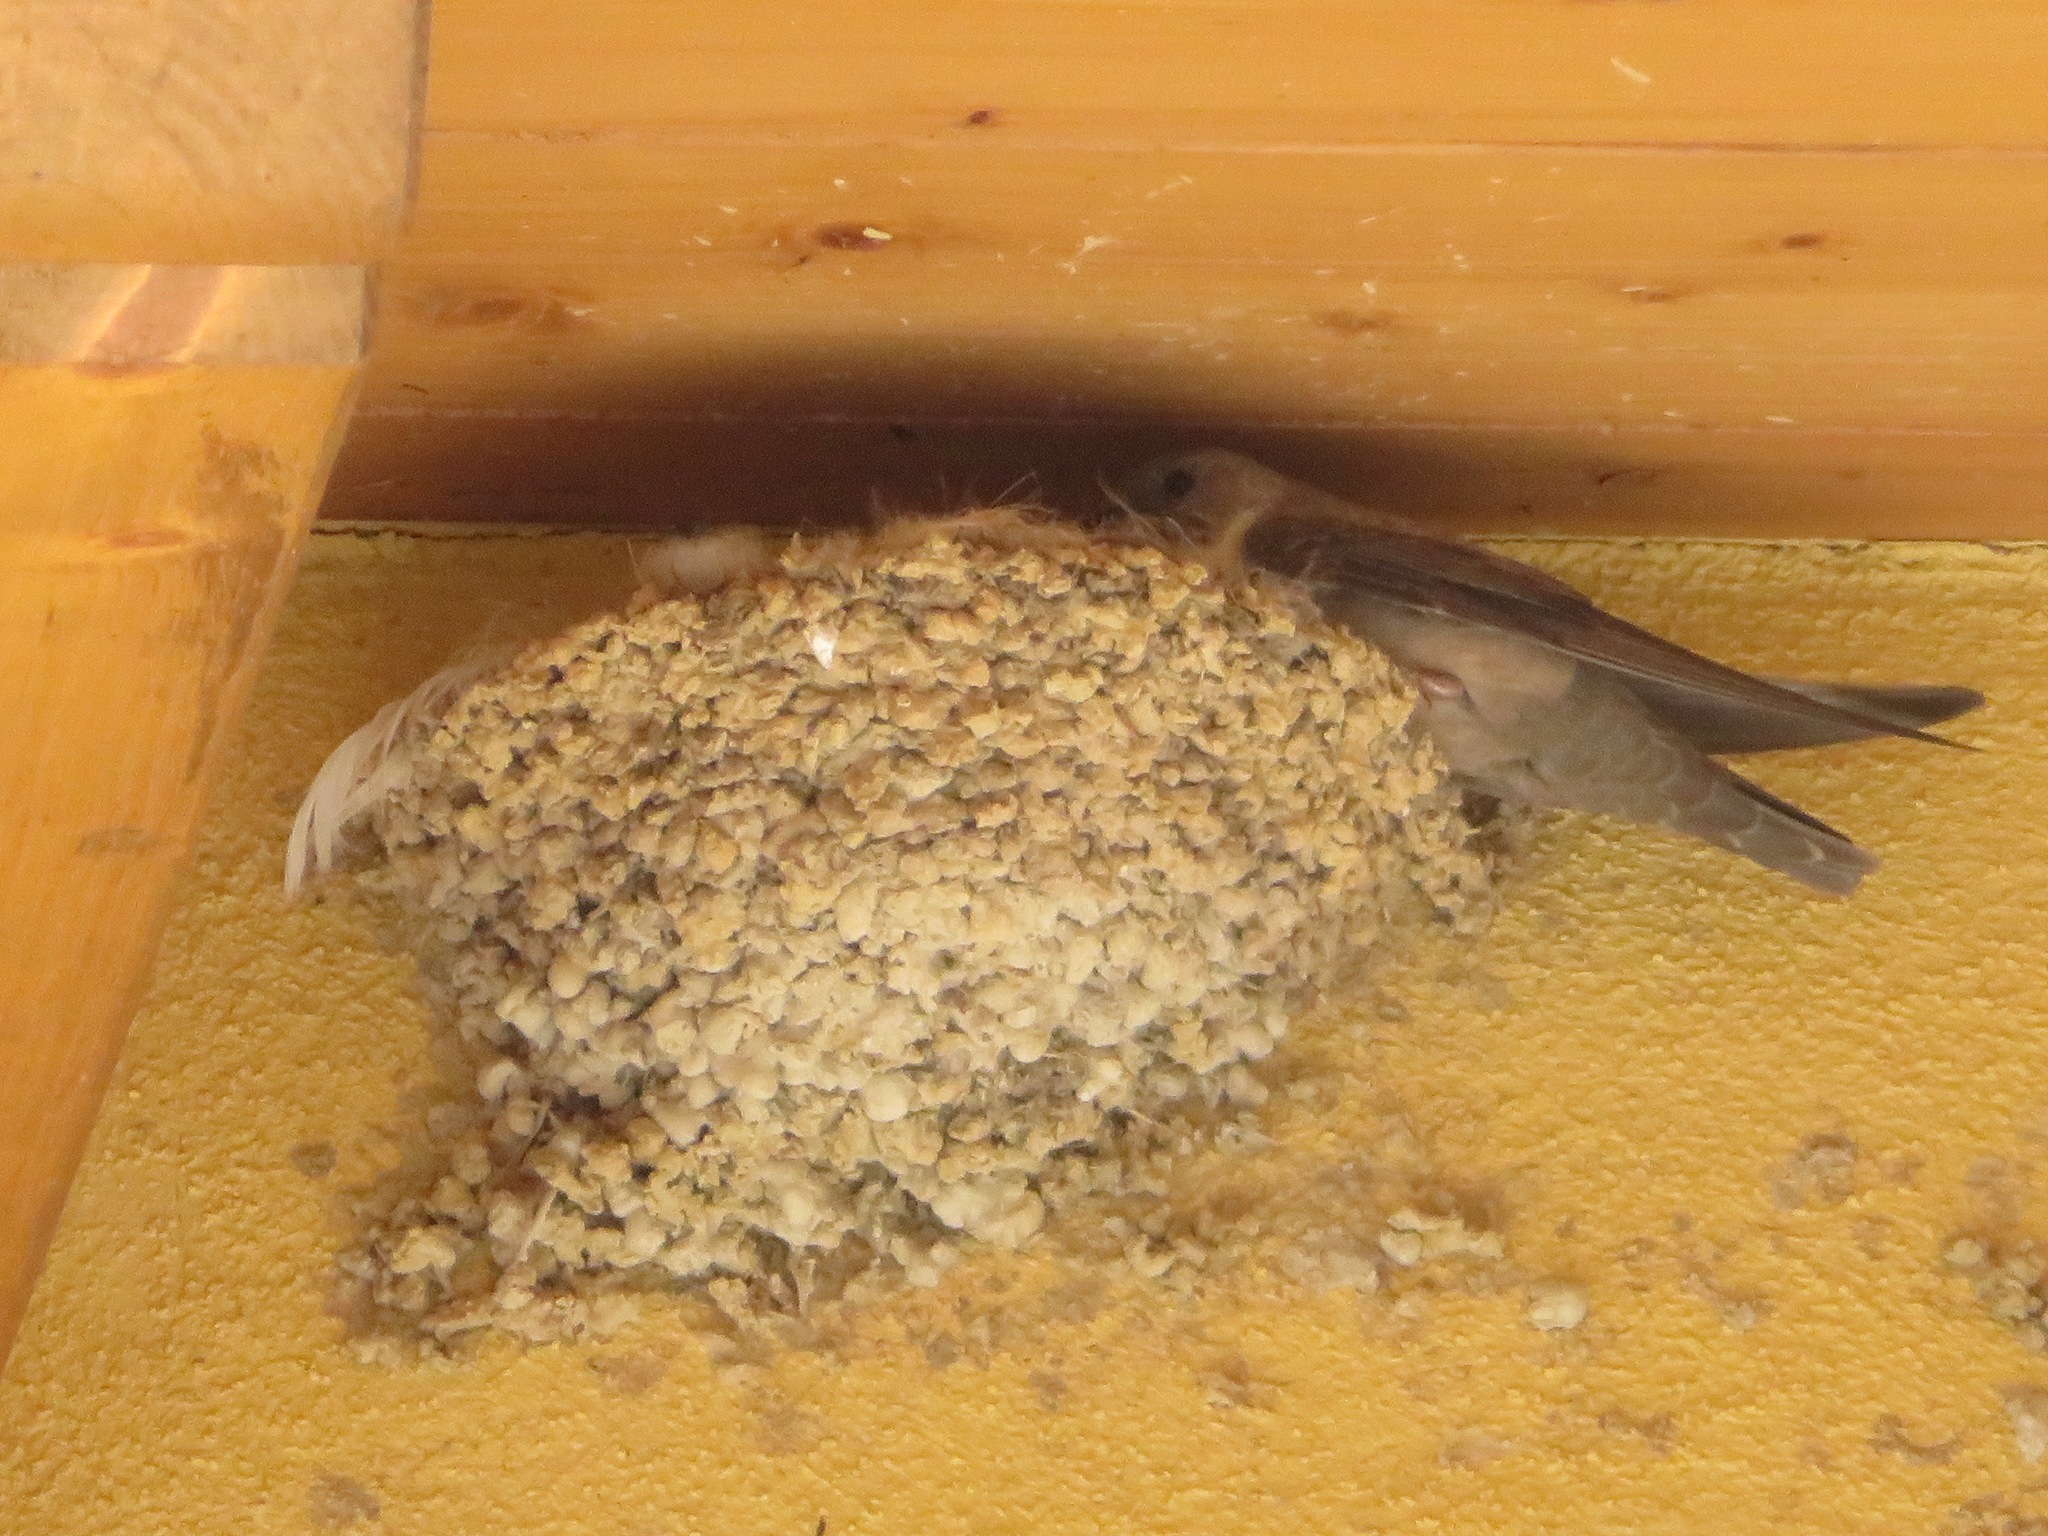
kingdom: Animalia
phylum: Chordata
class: Aves
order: Passeriformes
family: Hirundinidae
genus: Ptyonoprogne
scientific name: Ptyonoprogne rupestris
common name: Eurasian crag martin
